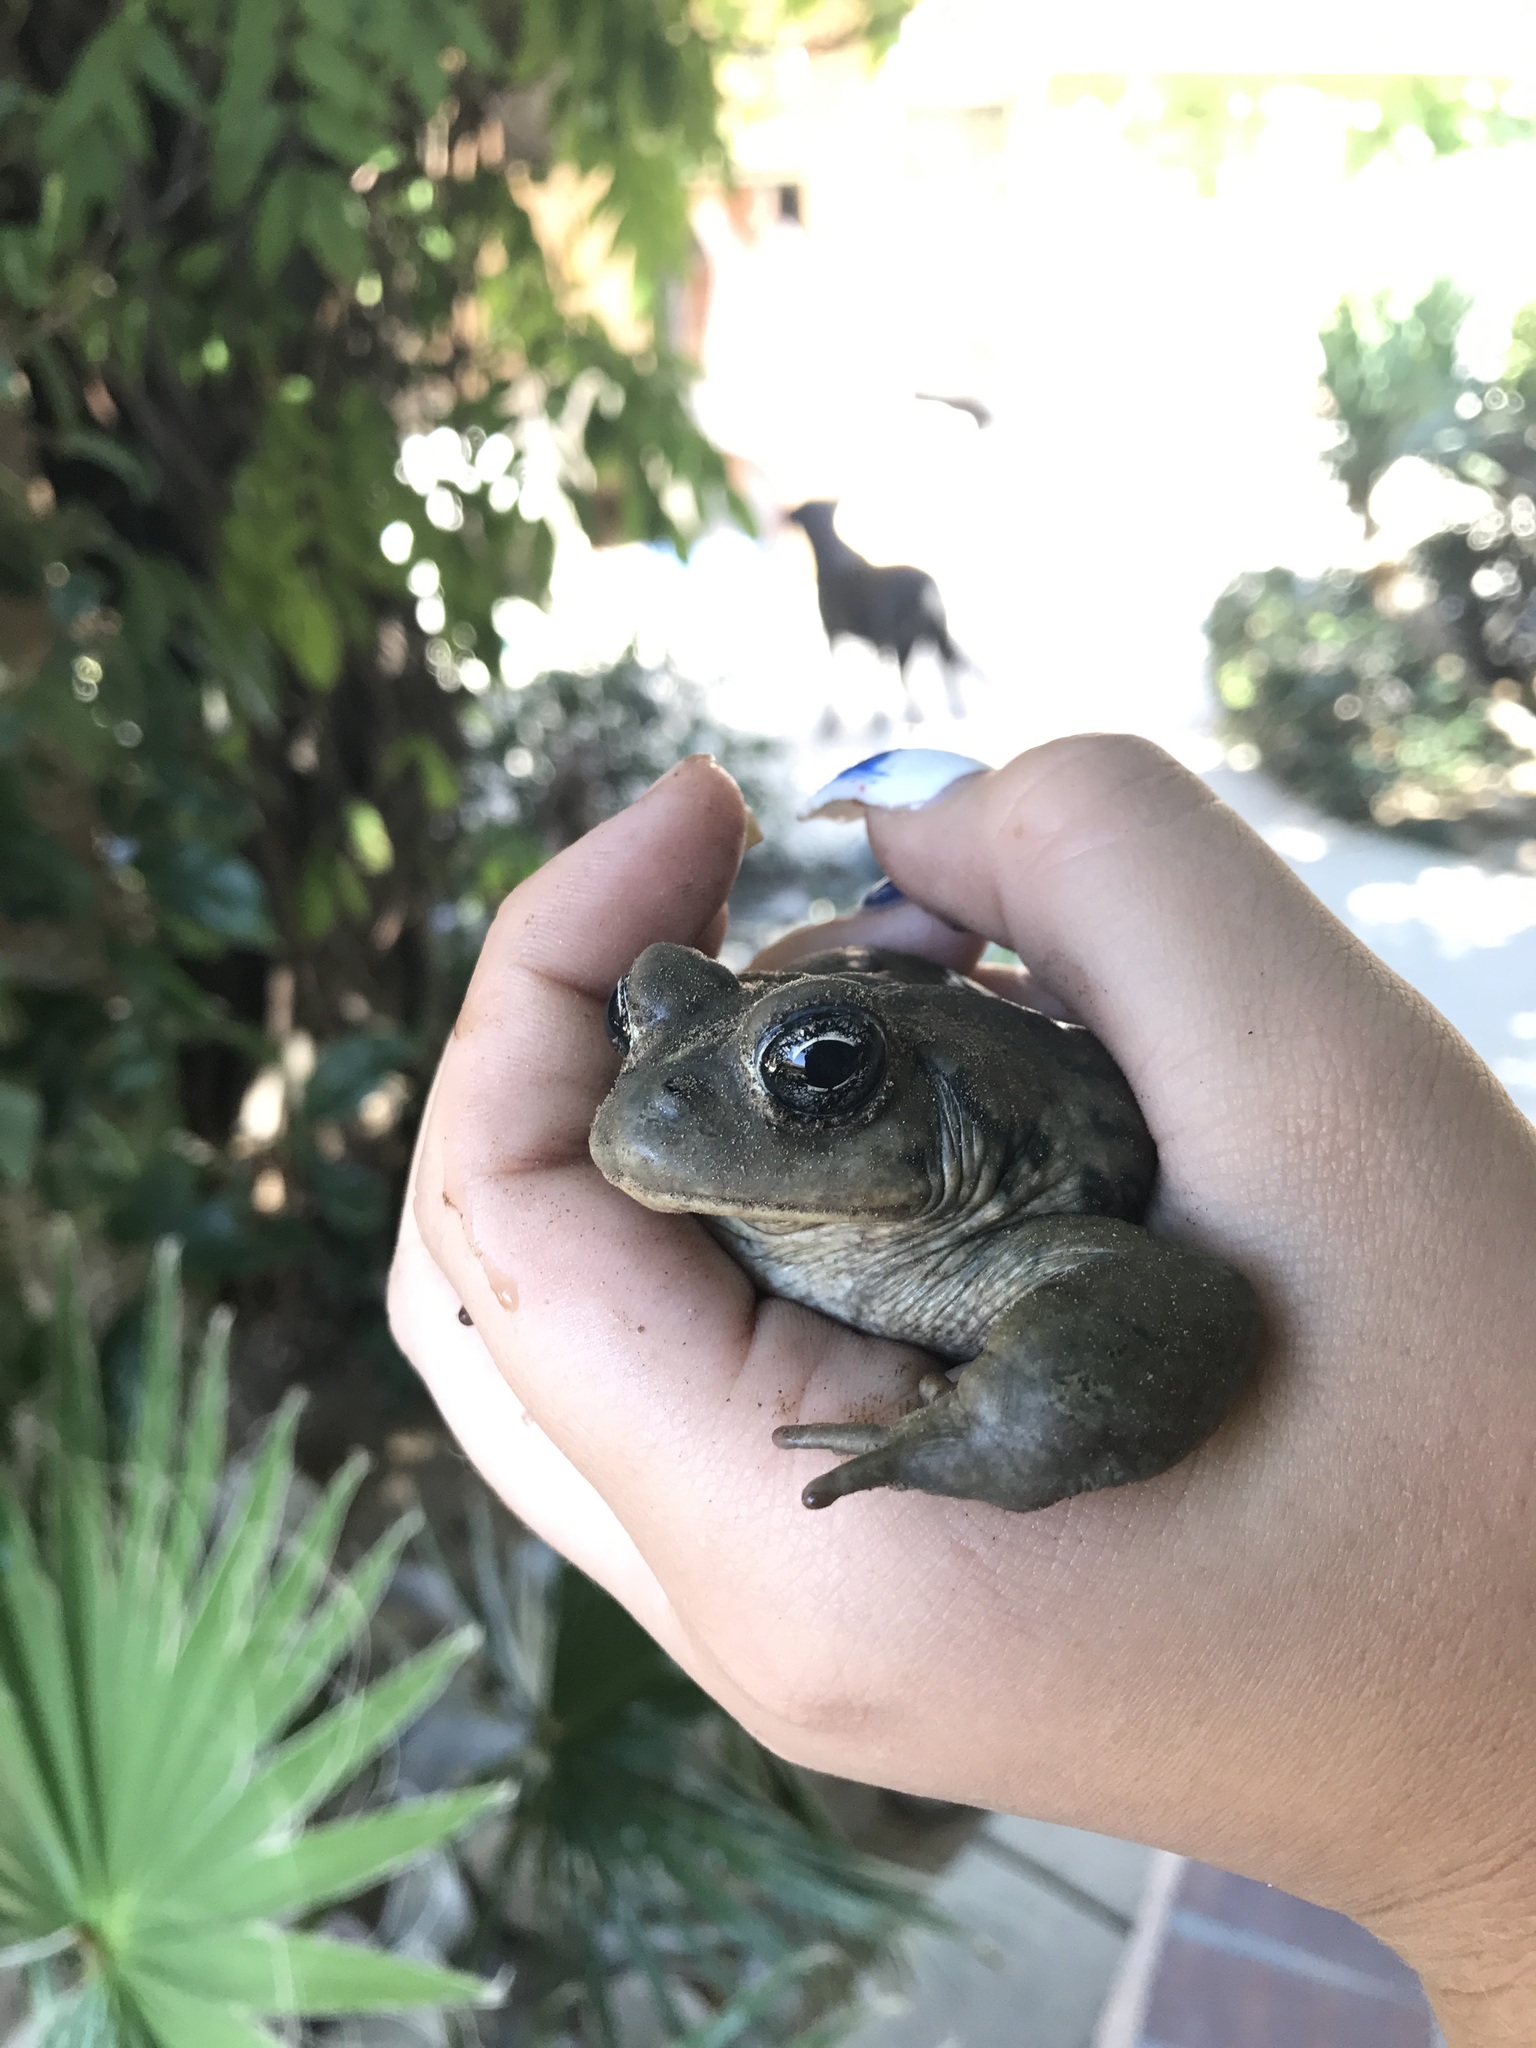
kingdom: Animalia
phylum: Chordata
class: Amphibia
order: Anura
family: Bufonidae
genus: Anaxyrus
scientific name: Anaxyrus boreas
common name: Western toad
